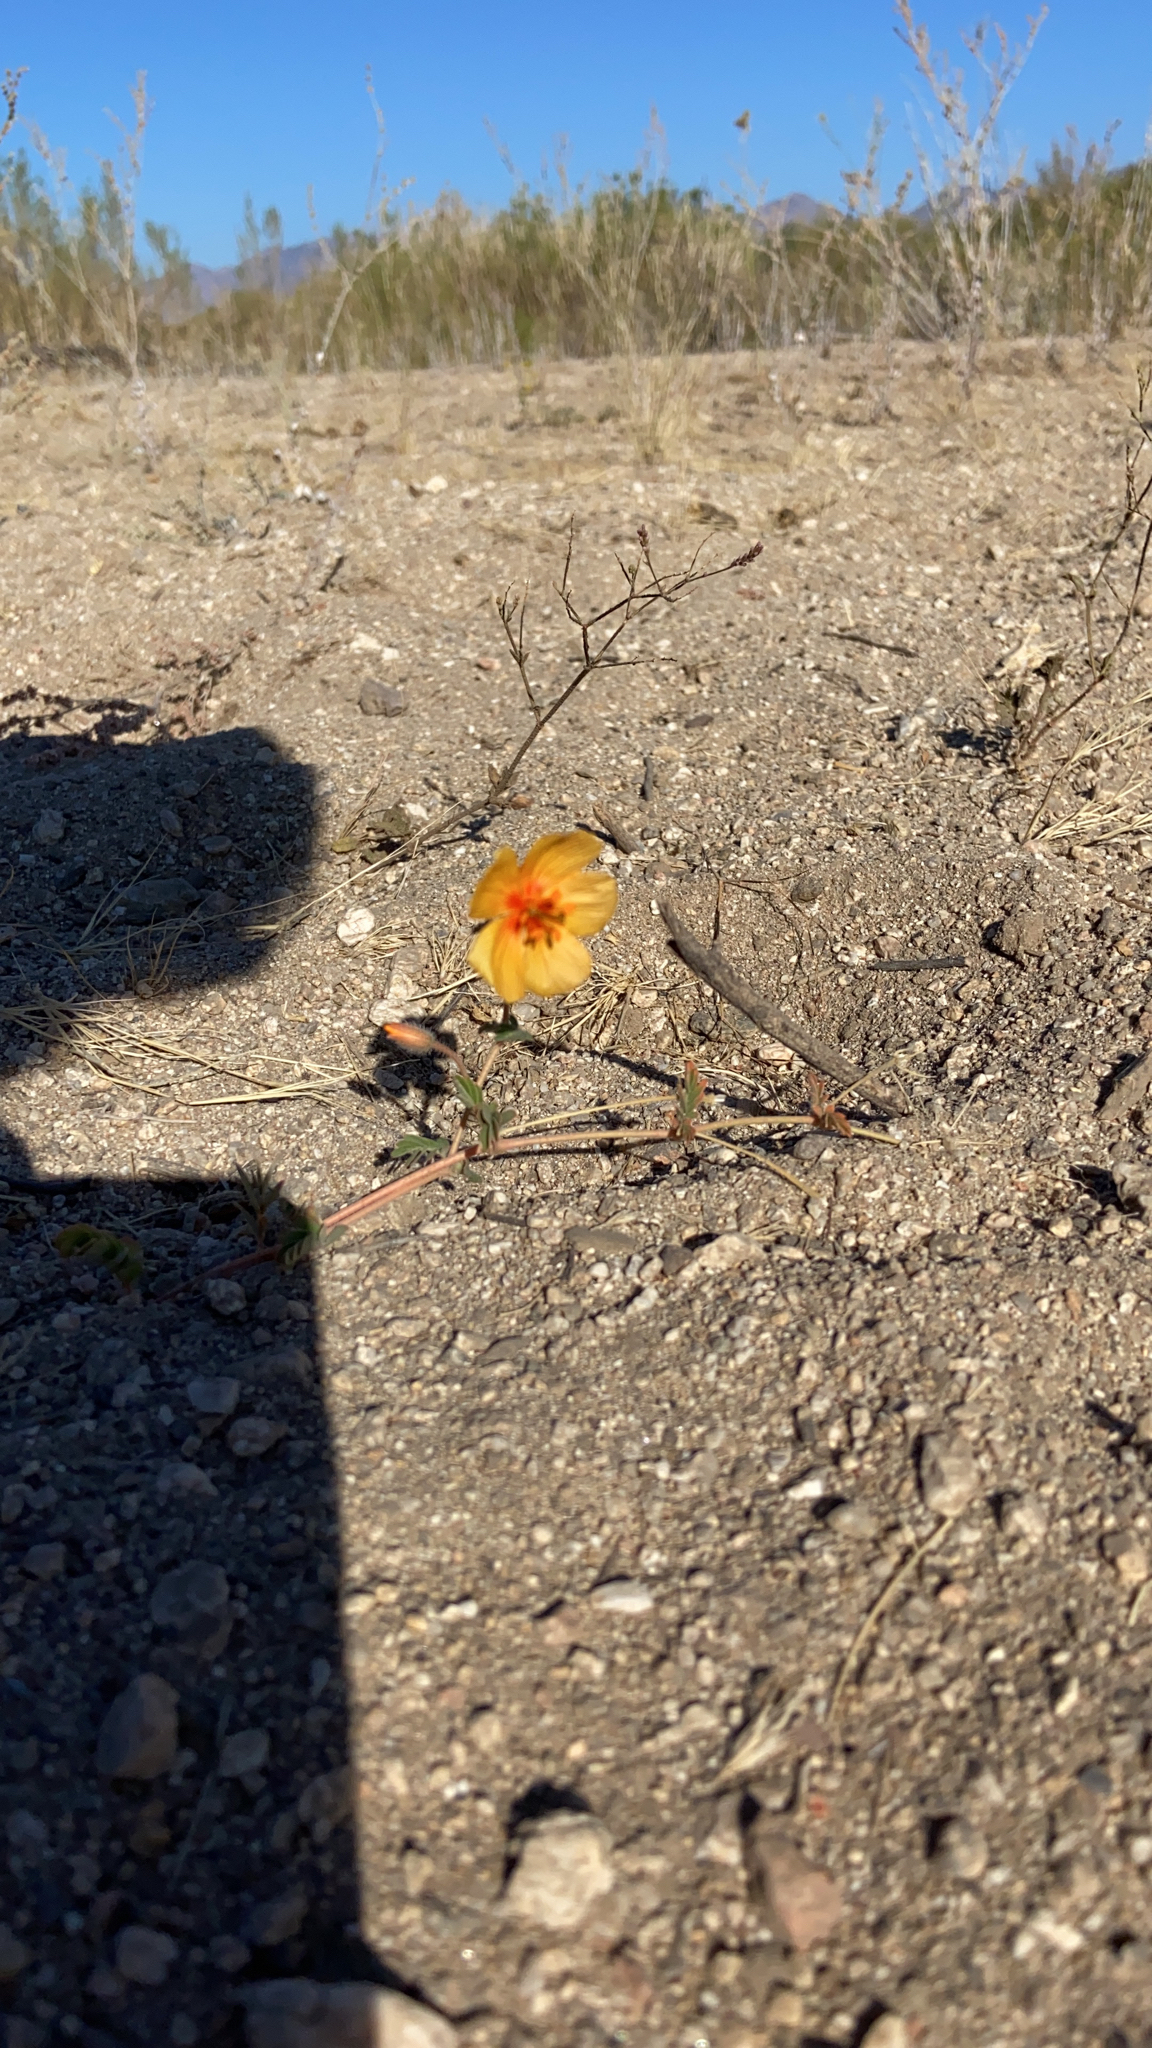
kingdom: Plantae
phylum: Tracheophyta
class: Magnoliopsida
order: Zygophyllales
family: Zygophyllaceae
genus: Kallstroemia
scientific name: Kallstroemia grandiflora
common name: Arizona-poppy
